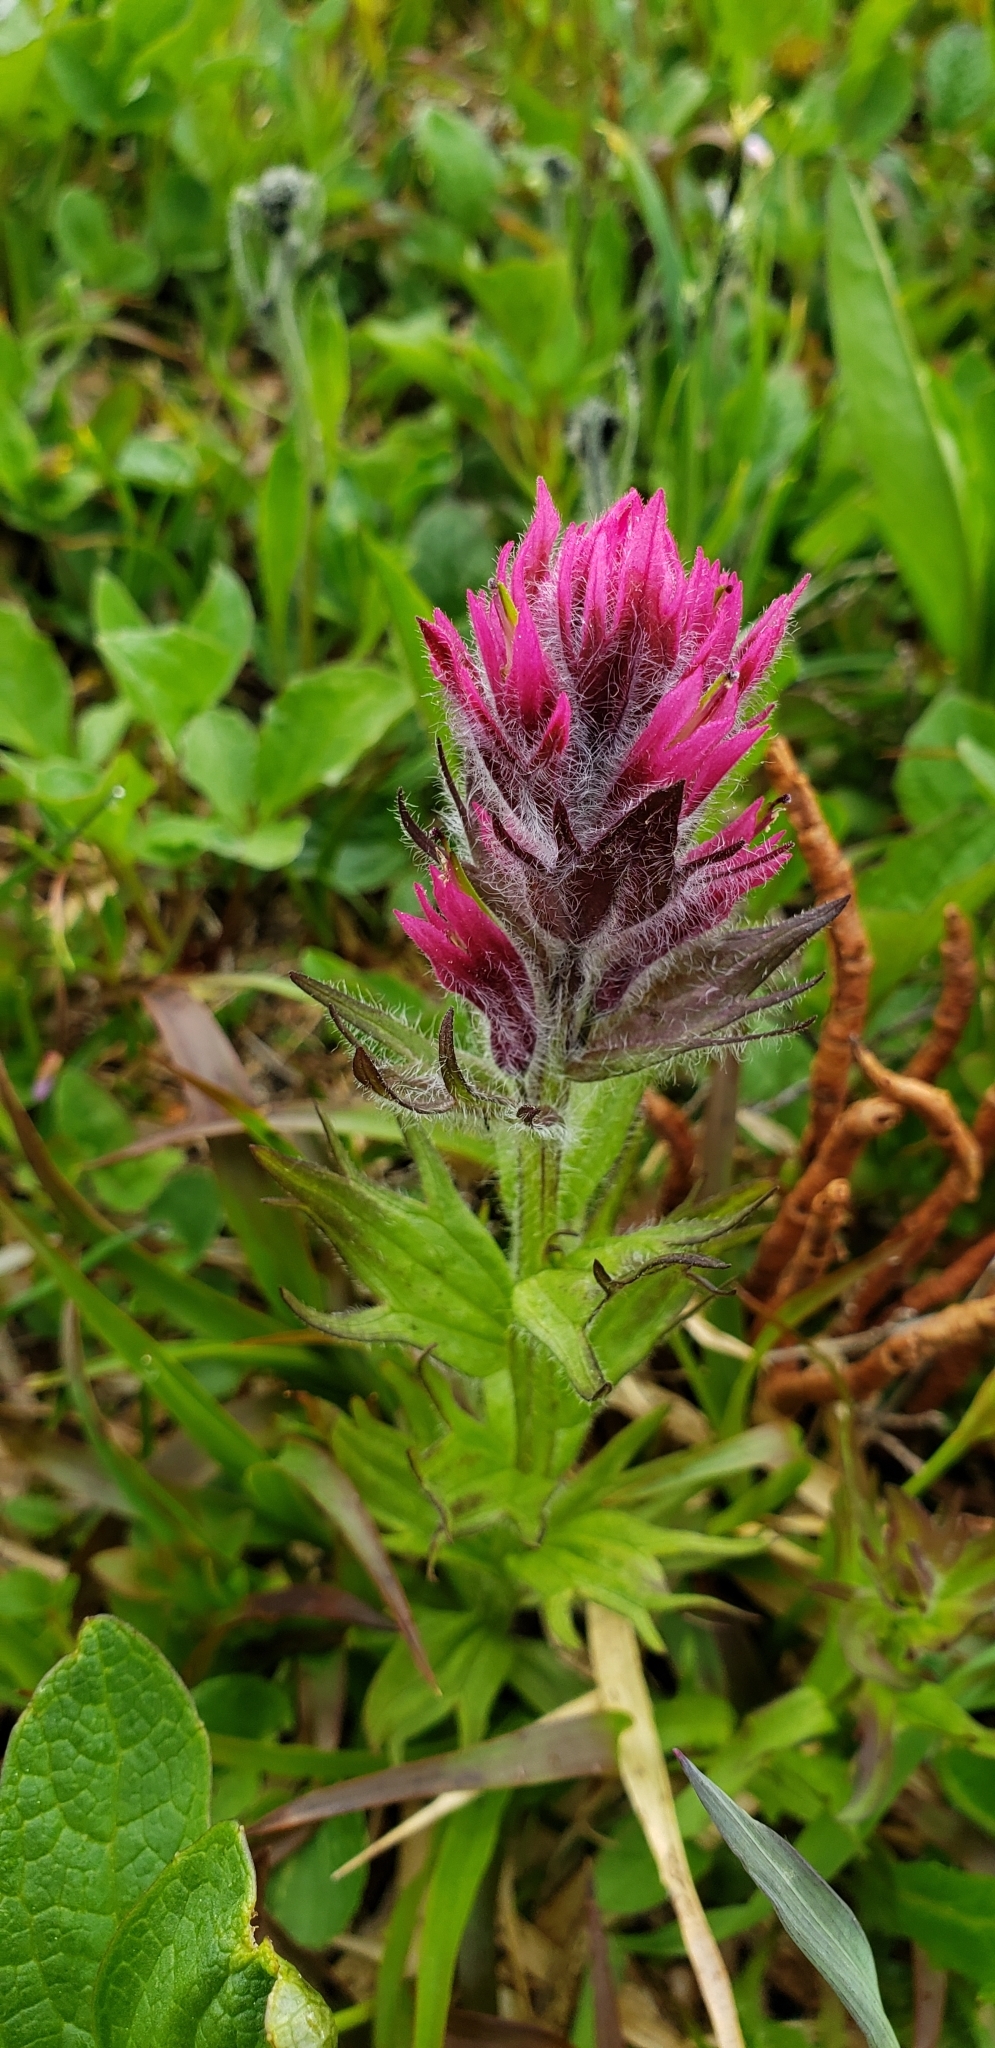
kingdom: Plantae
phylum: Tracheophyta
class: Magnoliopsida
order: Lamiales
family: Orobanchaceae
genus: Castilleja
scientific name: Castilleja parviflora
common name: Mountain paintbrush
